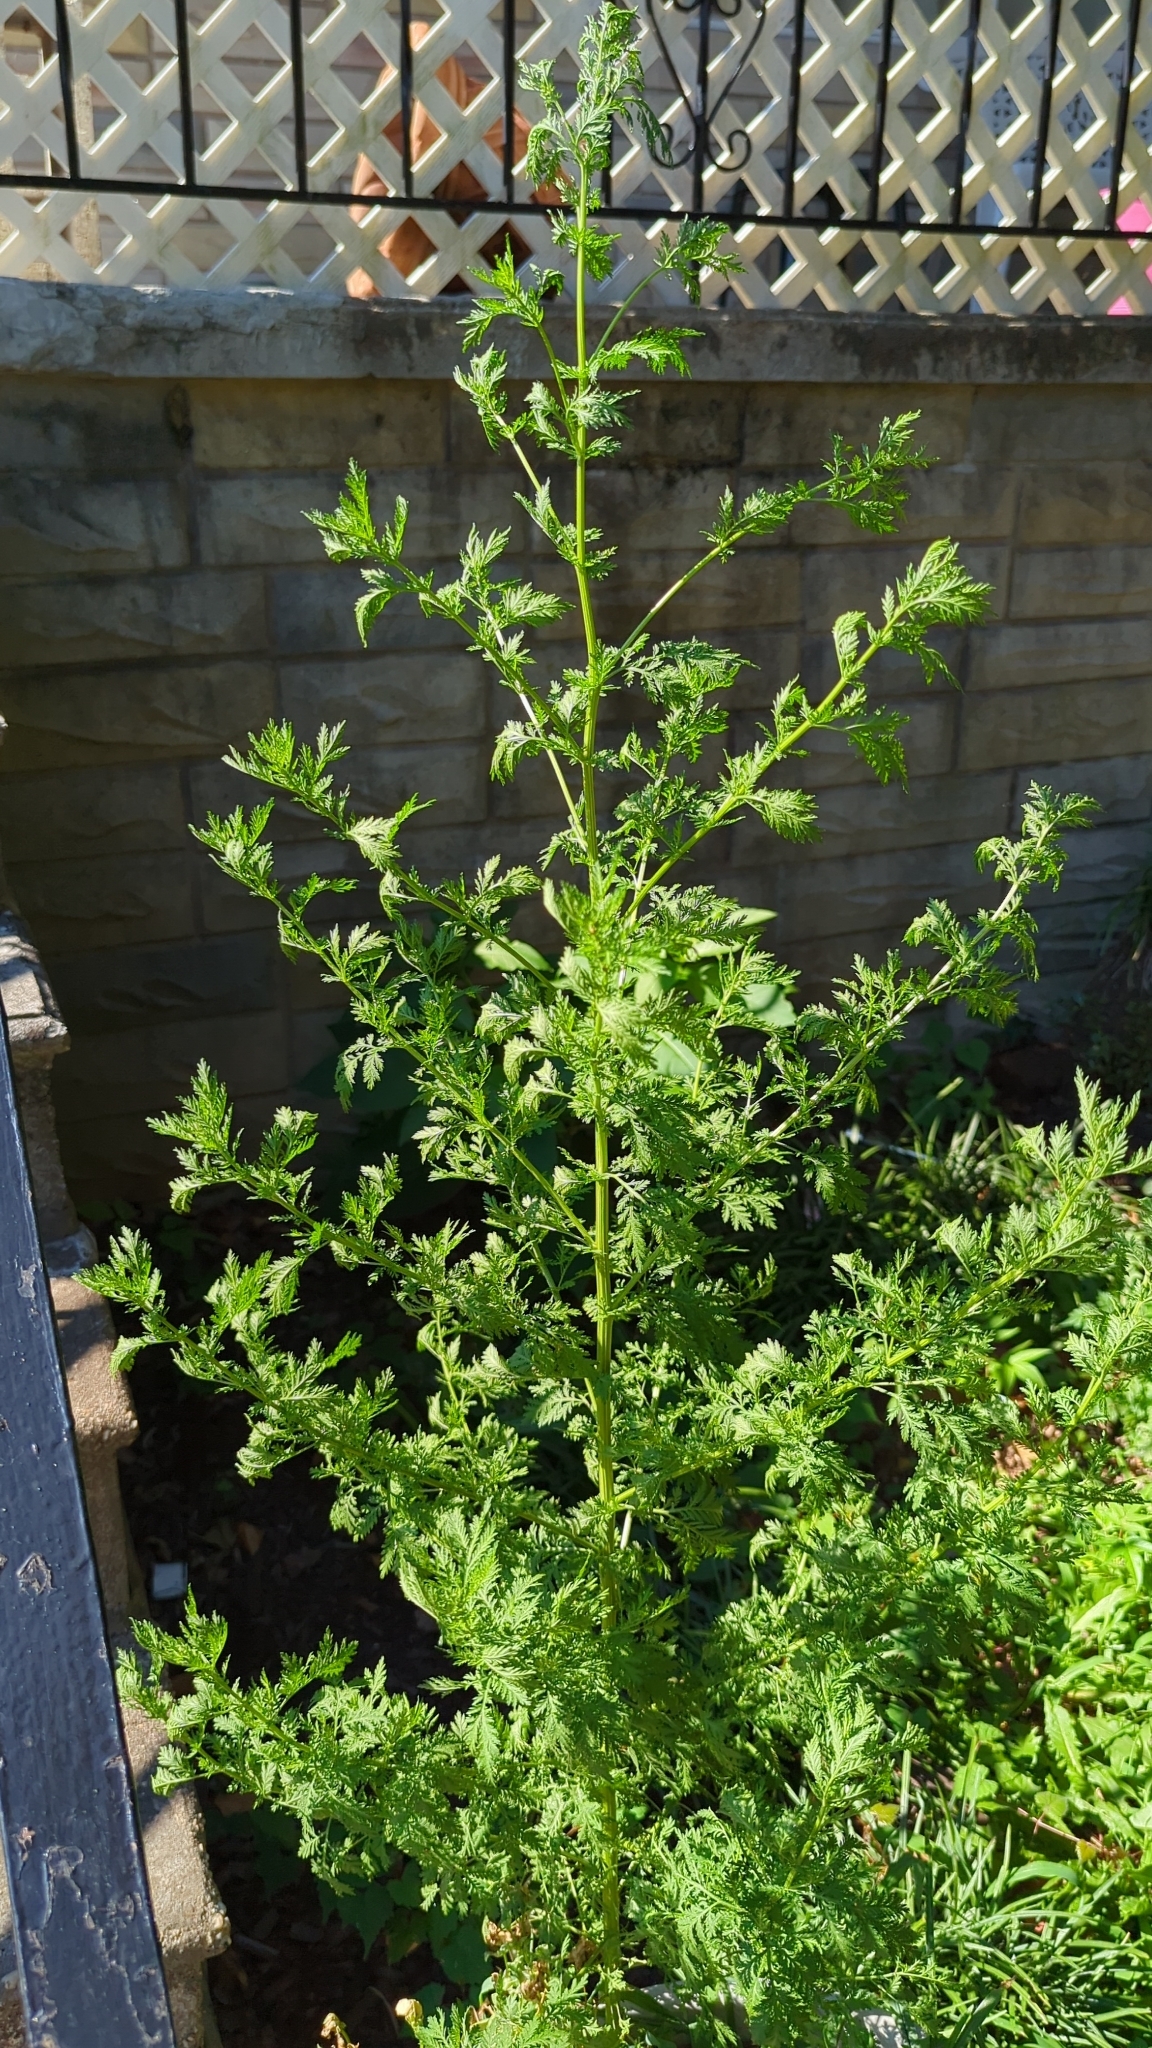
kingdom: Plantae
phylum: Tracheophyta
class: Magnoliopsida
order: Asterales
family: Asteraceae
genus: Artemisia
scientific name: Artemisia annua
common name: Sweet sagewort
